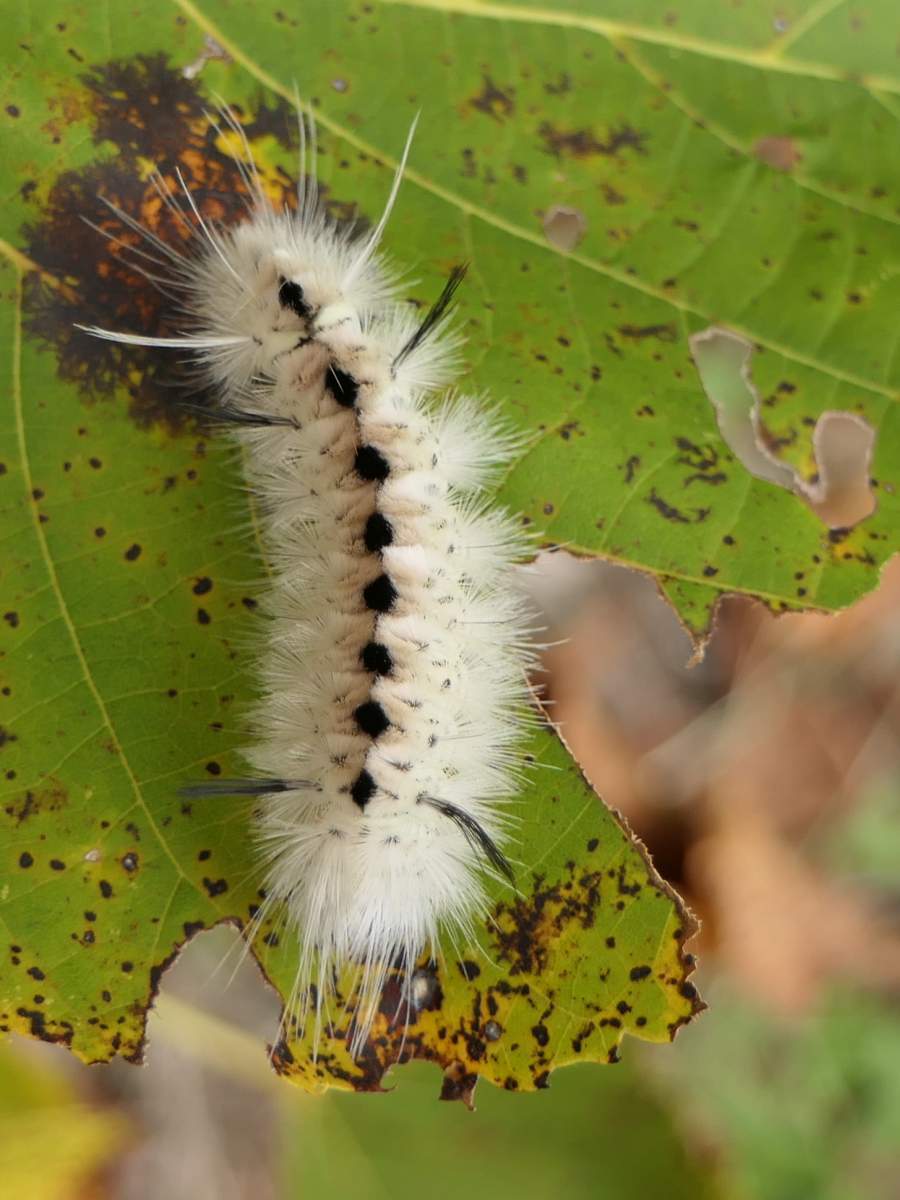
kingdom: Animalia
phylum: Arthropoda
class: Insecta
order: Lepidoptera
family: Erebidae
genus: Lophocampa
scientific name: Lophocampa caryae
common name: Hickory tussock moth
